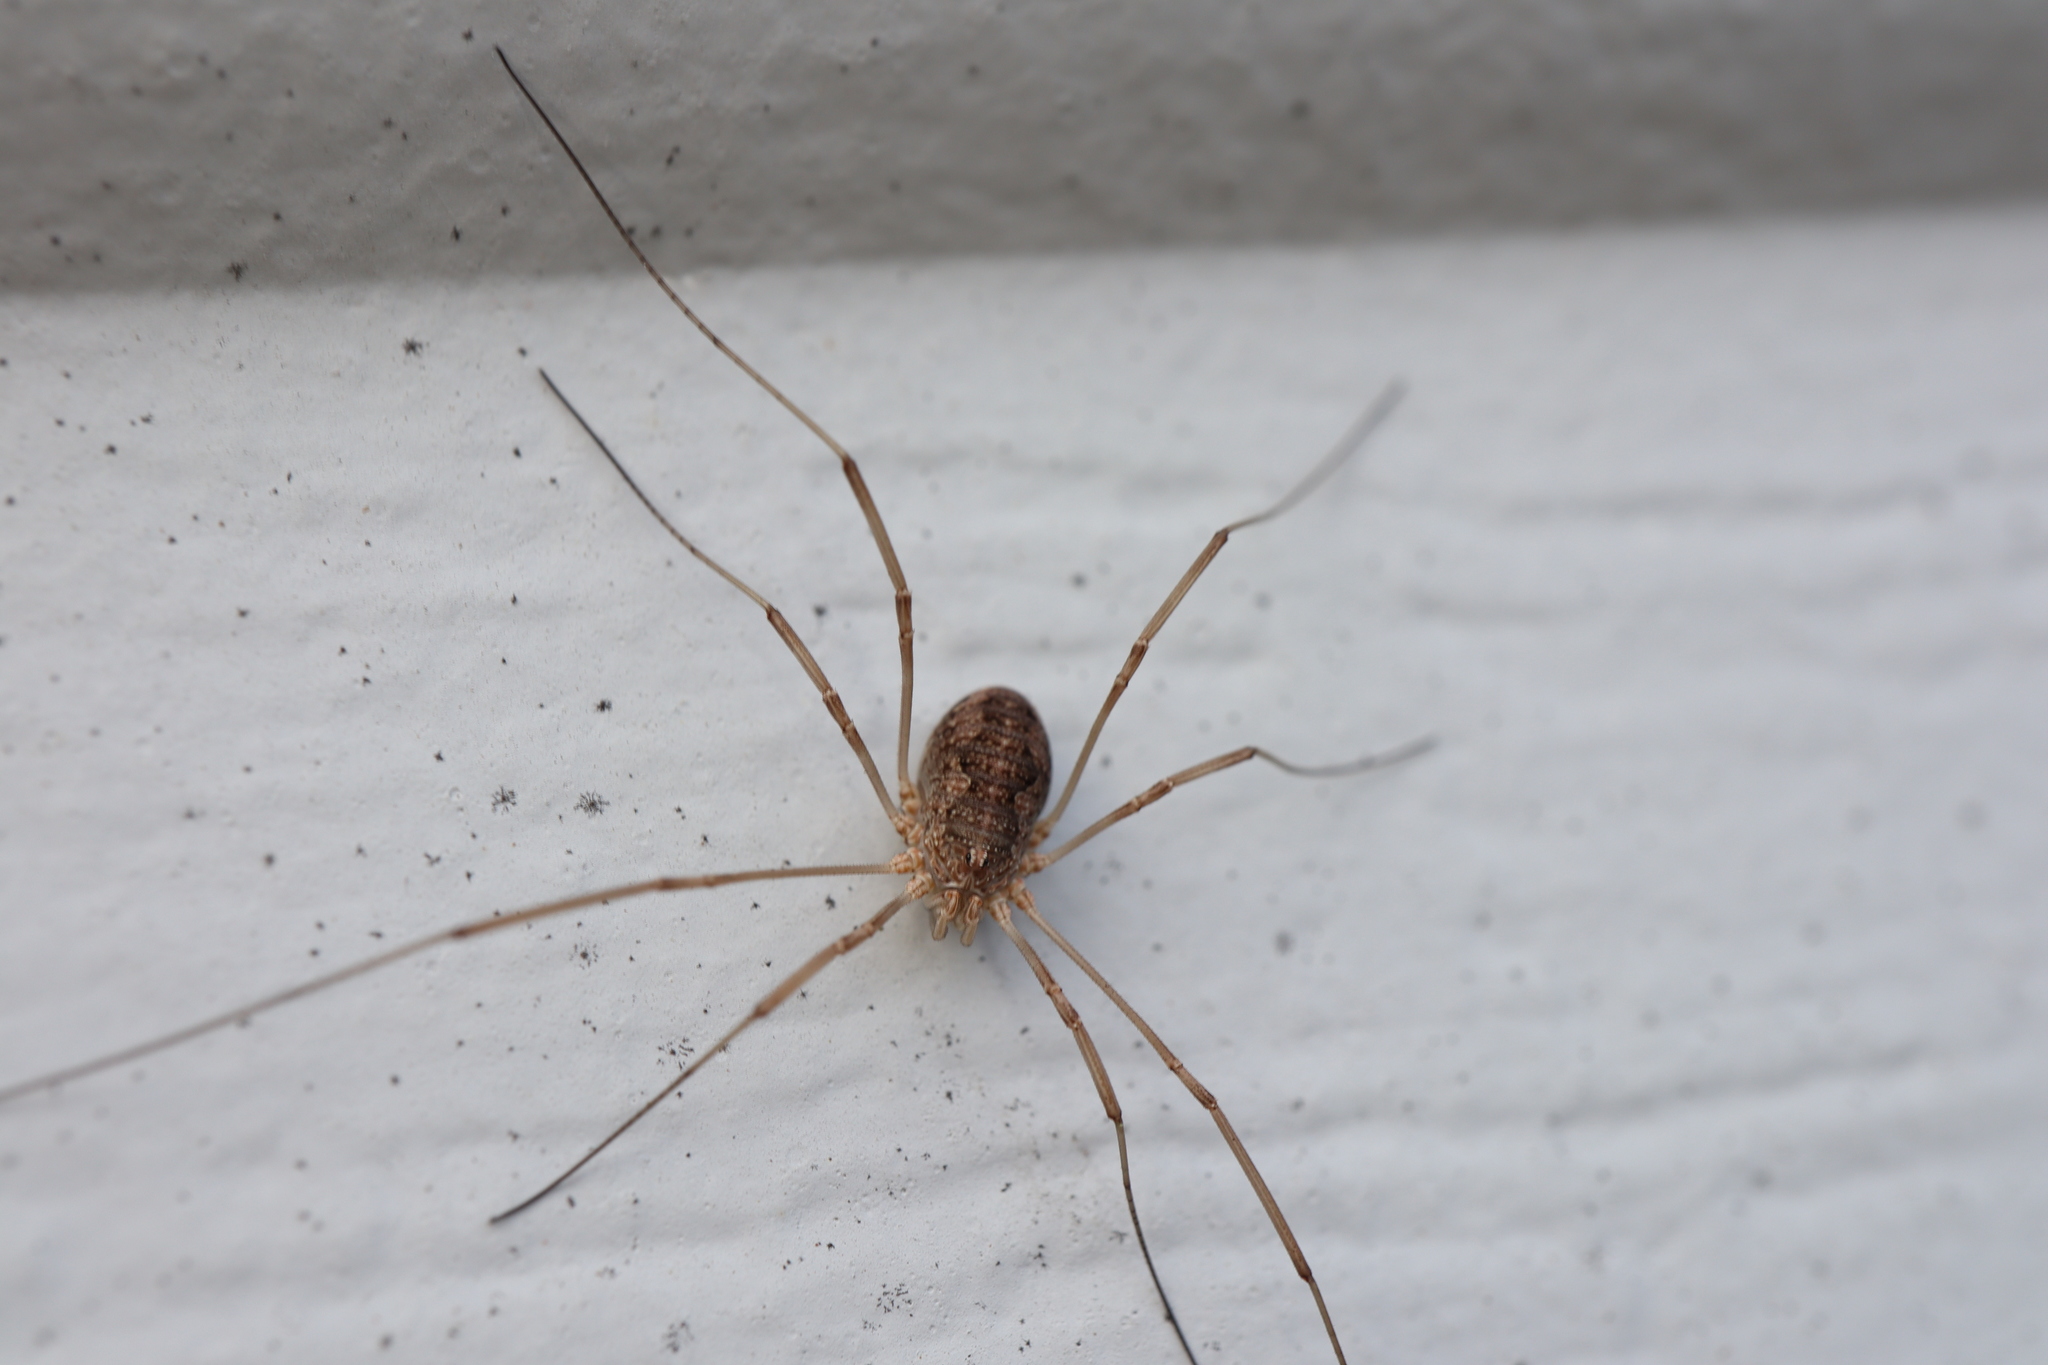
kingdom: Animalia
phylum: Arthropoda
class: Arachnida
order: Opiliones
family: Phalangiidae
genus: Phalangium
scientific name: Phalangium opilio
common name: Daddy longleg
